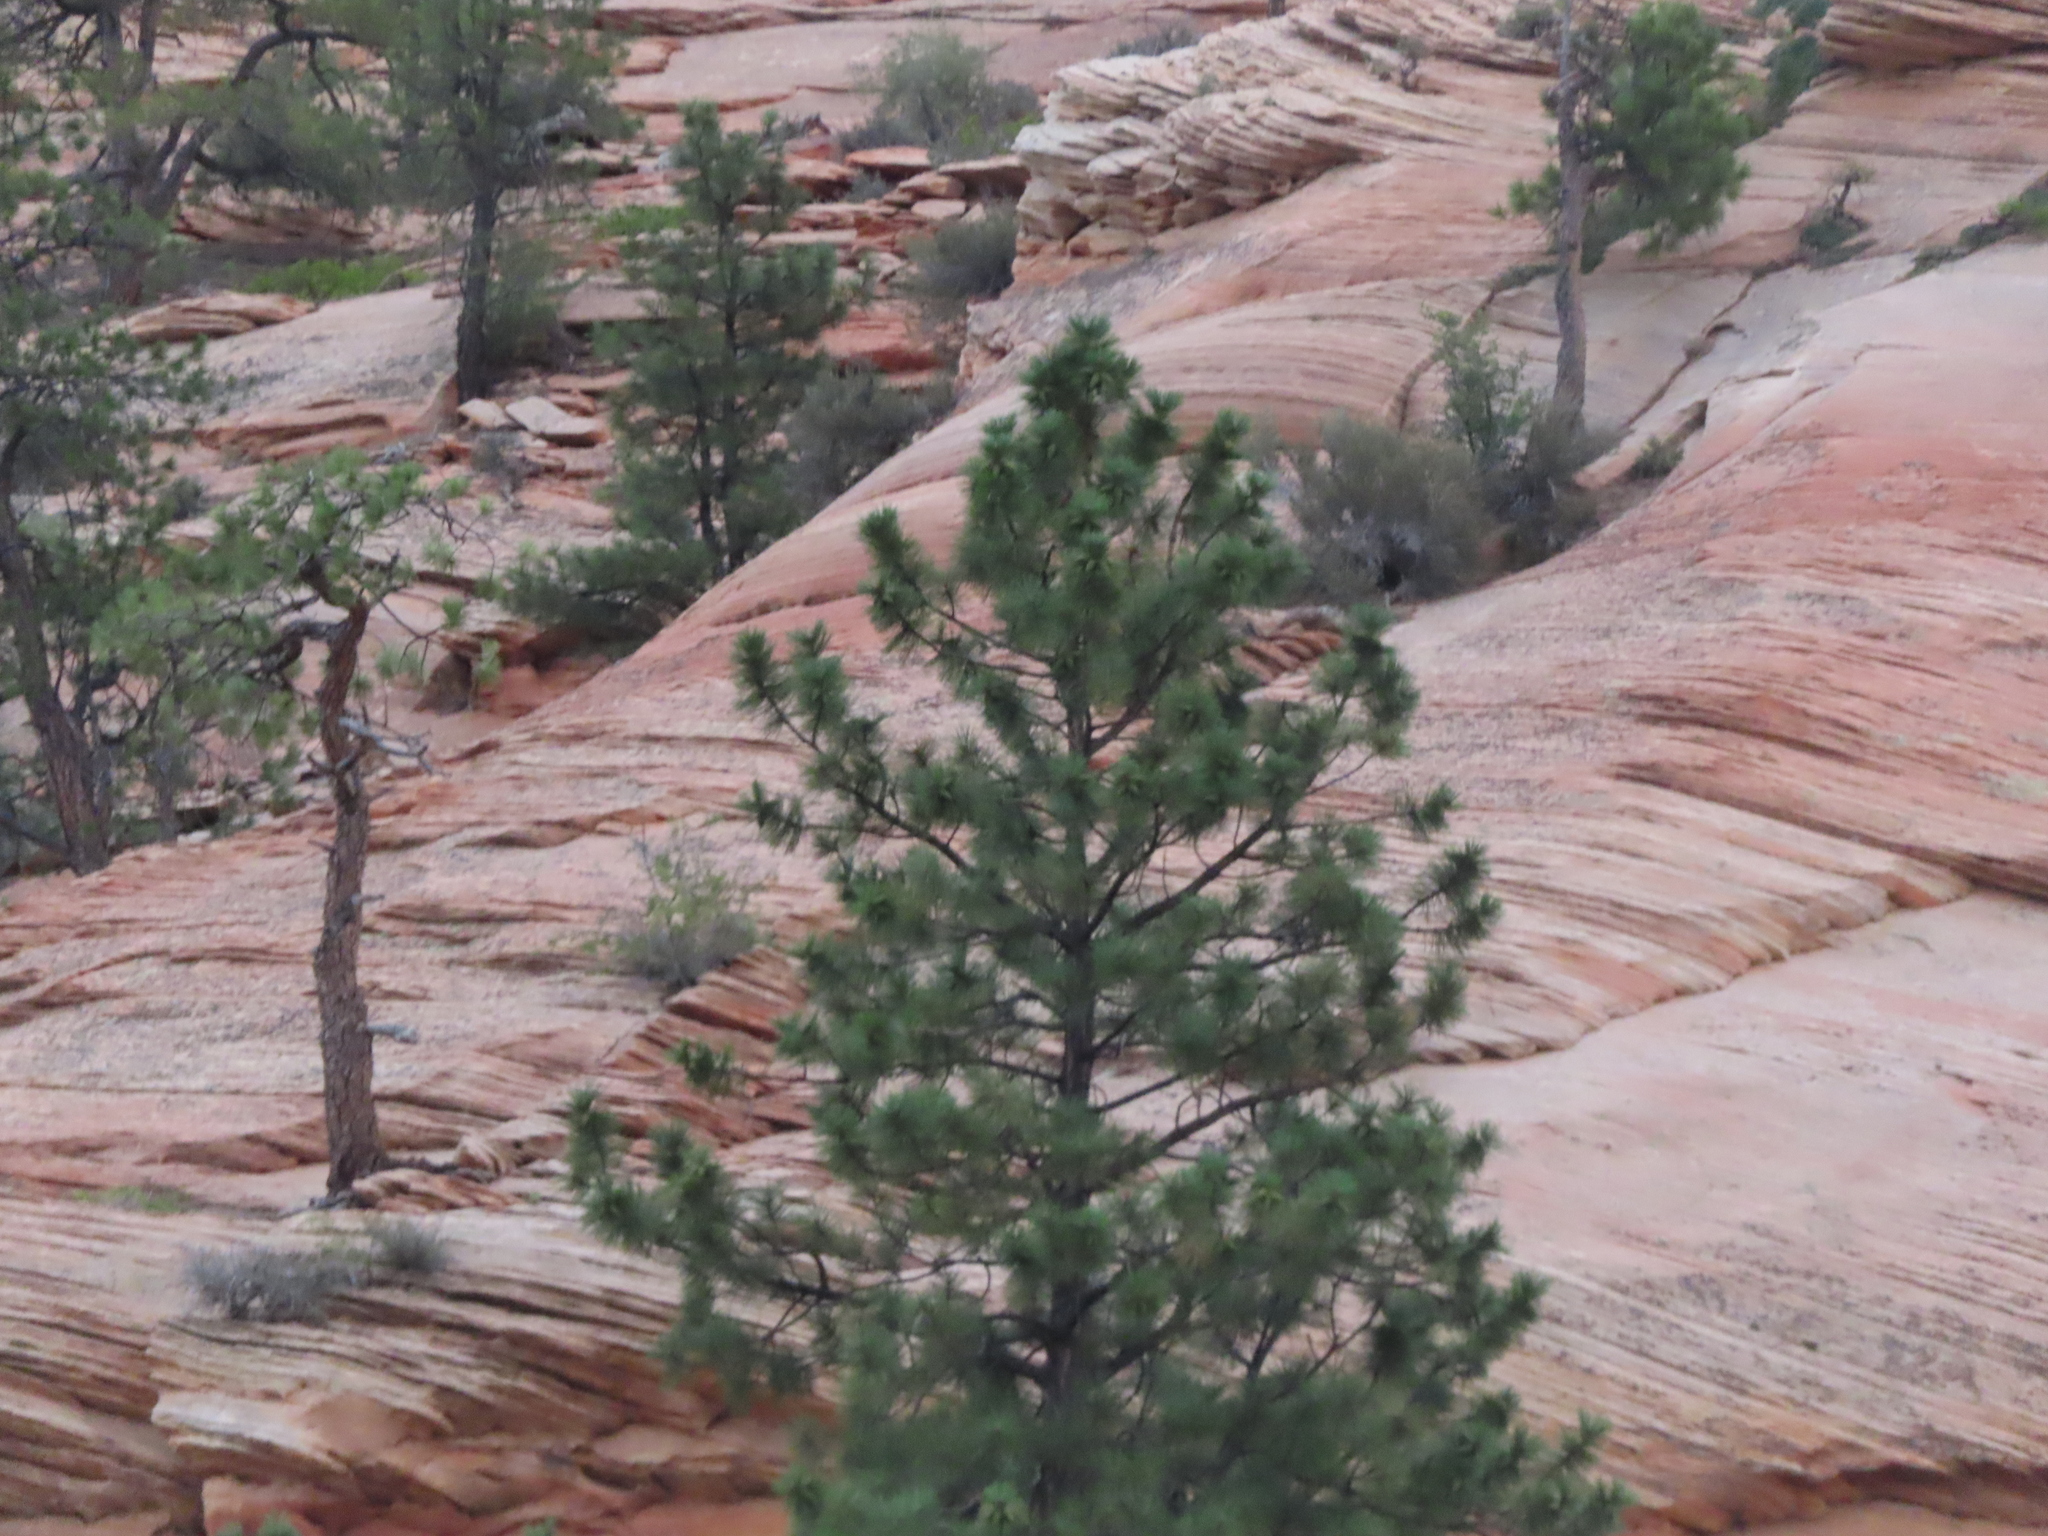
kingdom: Plantae
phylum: Tracheophyta
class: Pinopsida
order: Pinales
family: Pinaceae
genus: Pinus
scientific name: Pinus ponderosa
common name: Western yellow-pine
